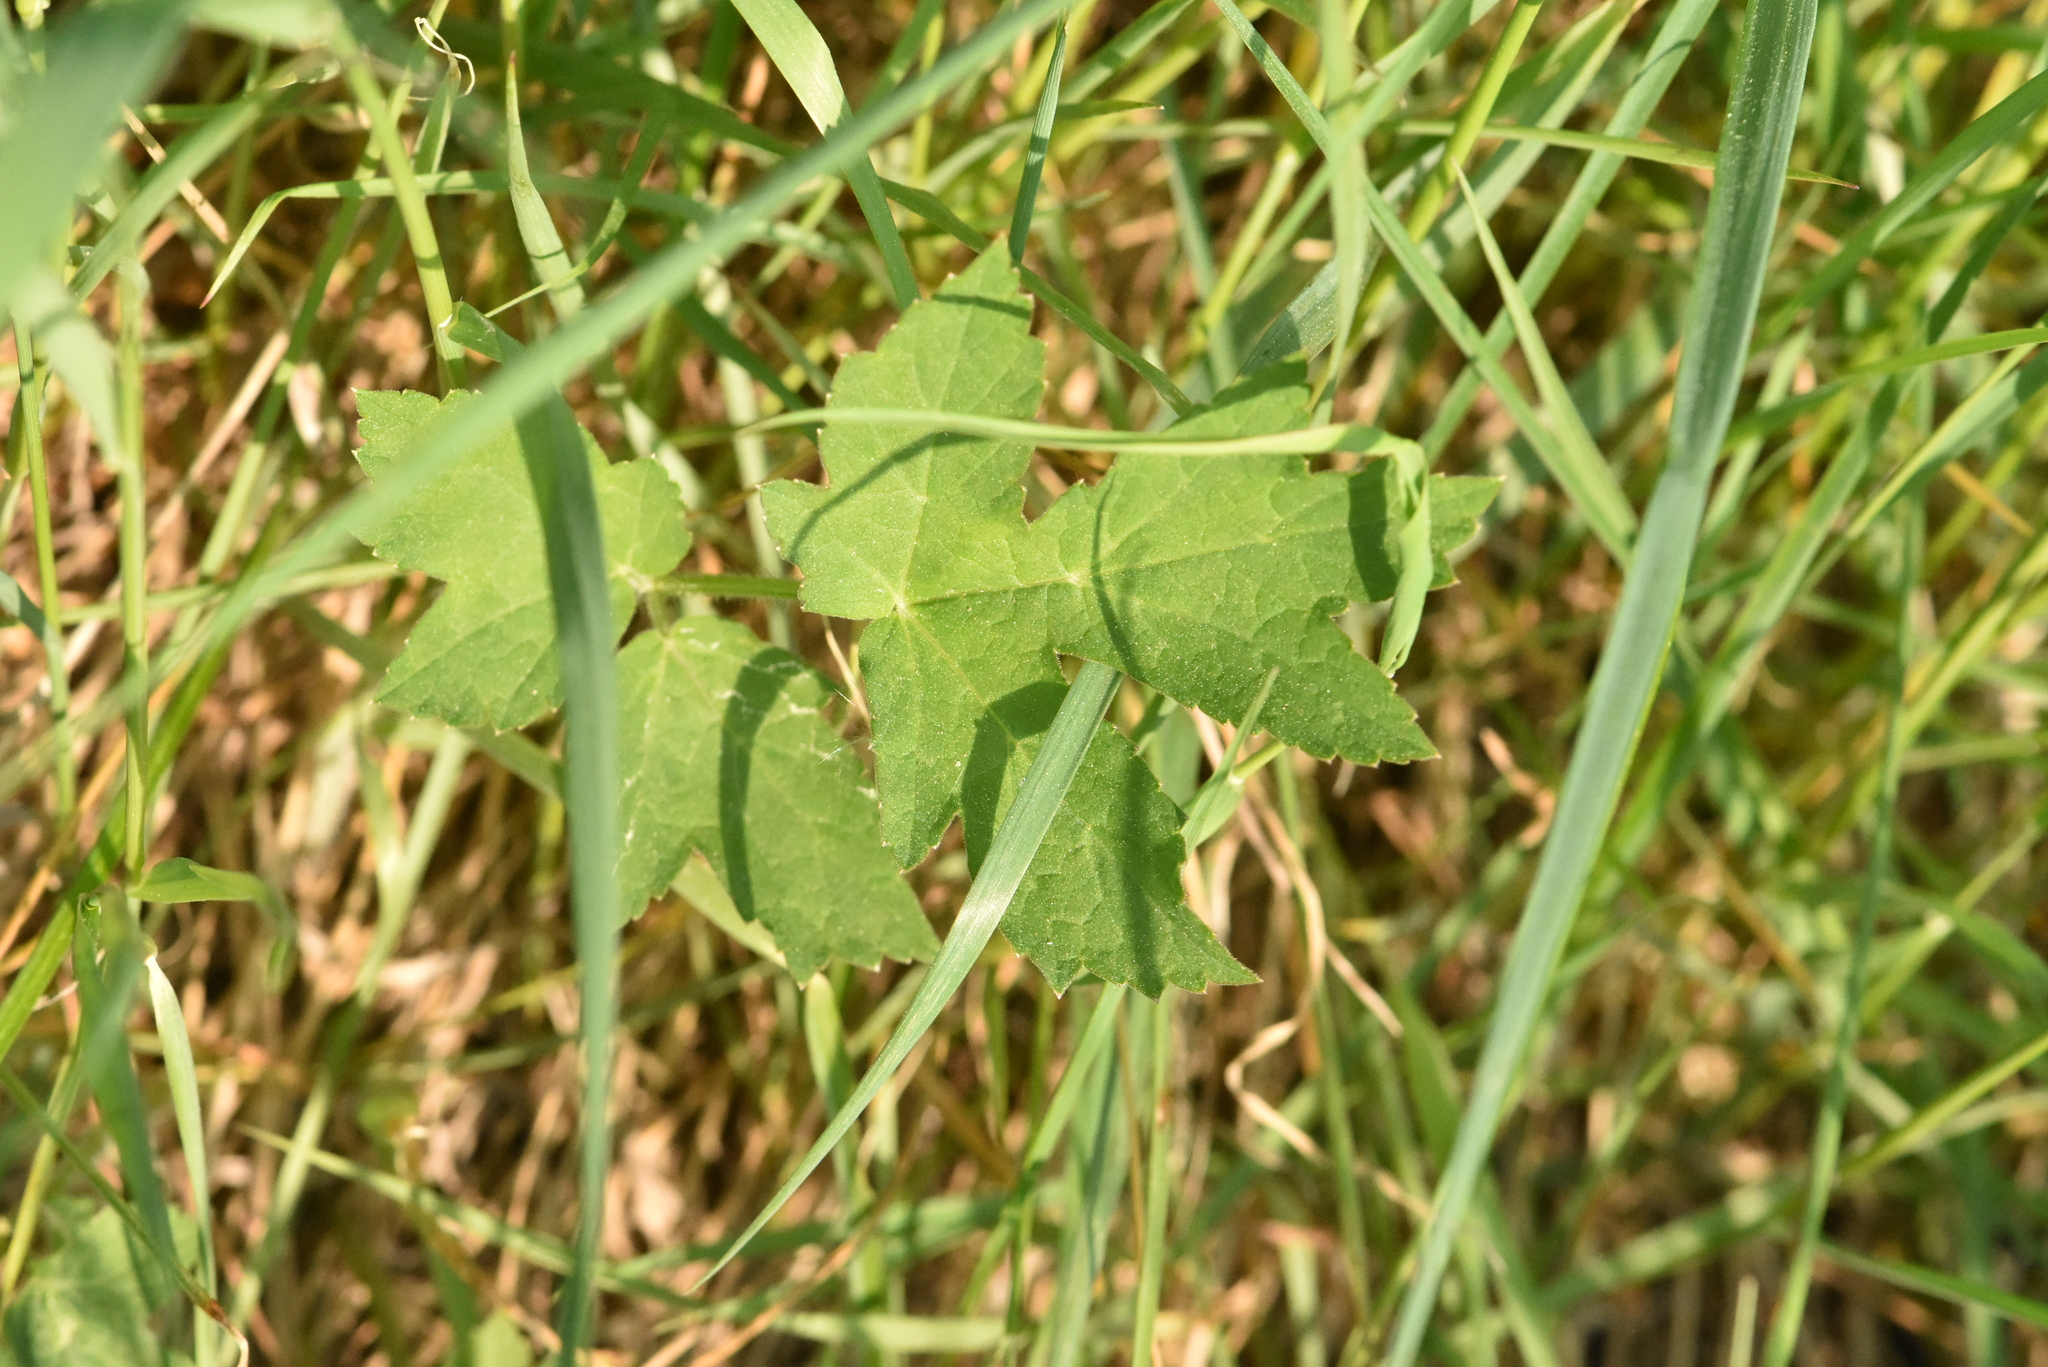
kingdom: Plantae
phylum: Tracheophyta
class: Magnoliopsida
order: Apiales
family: Apiaceae
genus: Heracleum
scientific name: Heracleum sphondylium
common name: Hogweed
